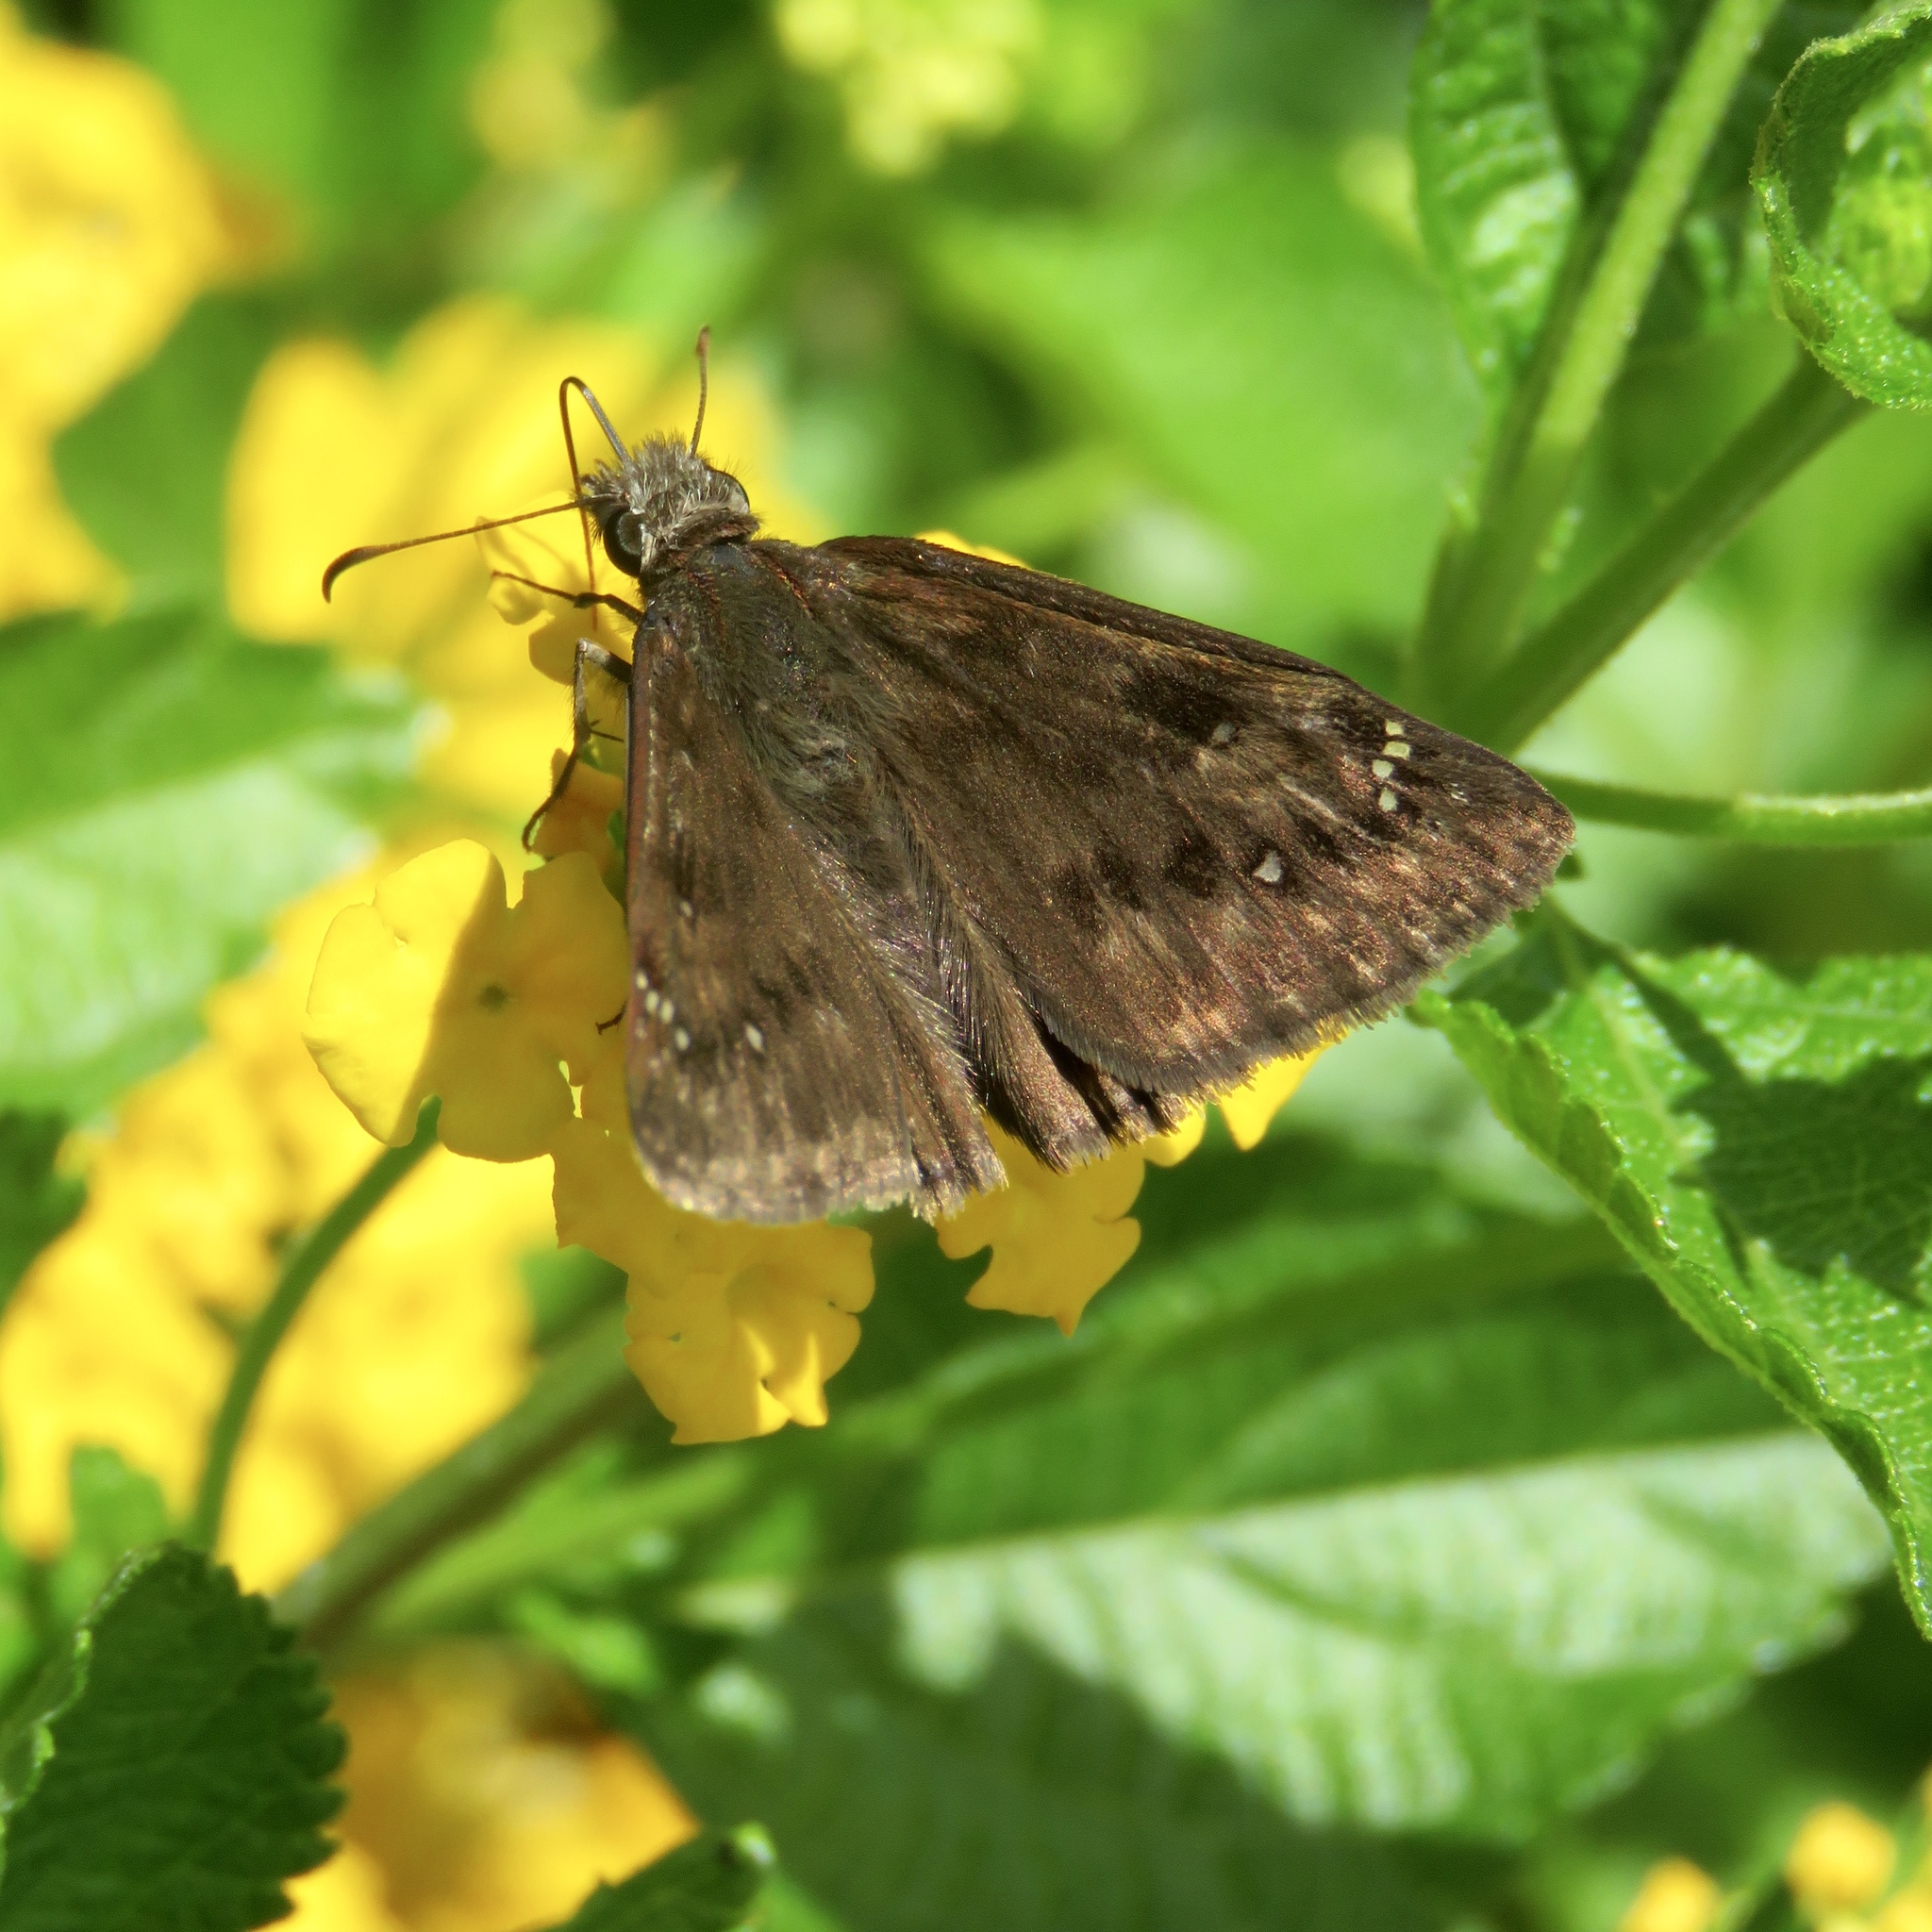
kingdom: Animalia
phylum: Arthropoda
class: Insecta
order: Lepidoptera
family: Hesperiidae
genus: Erynnis
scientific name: Erynnis horatius
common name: Horace's duskywing
